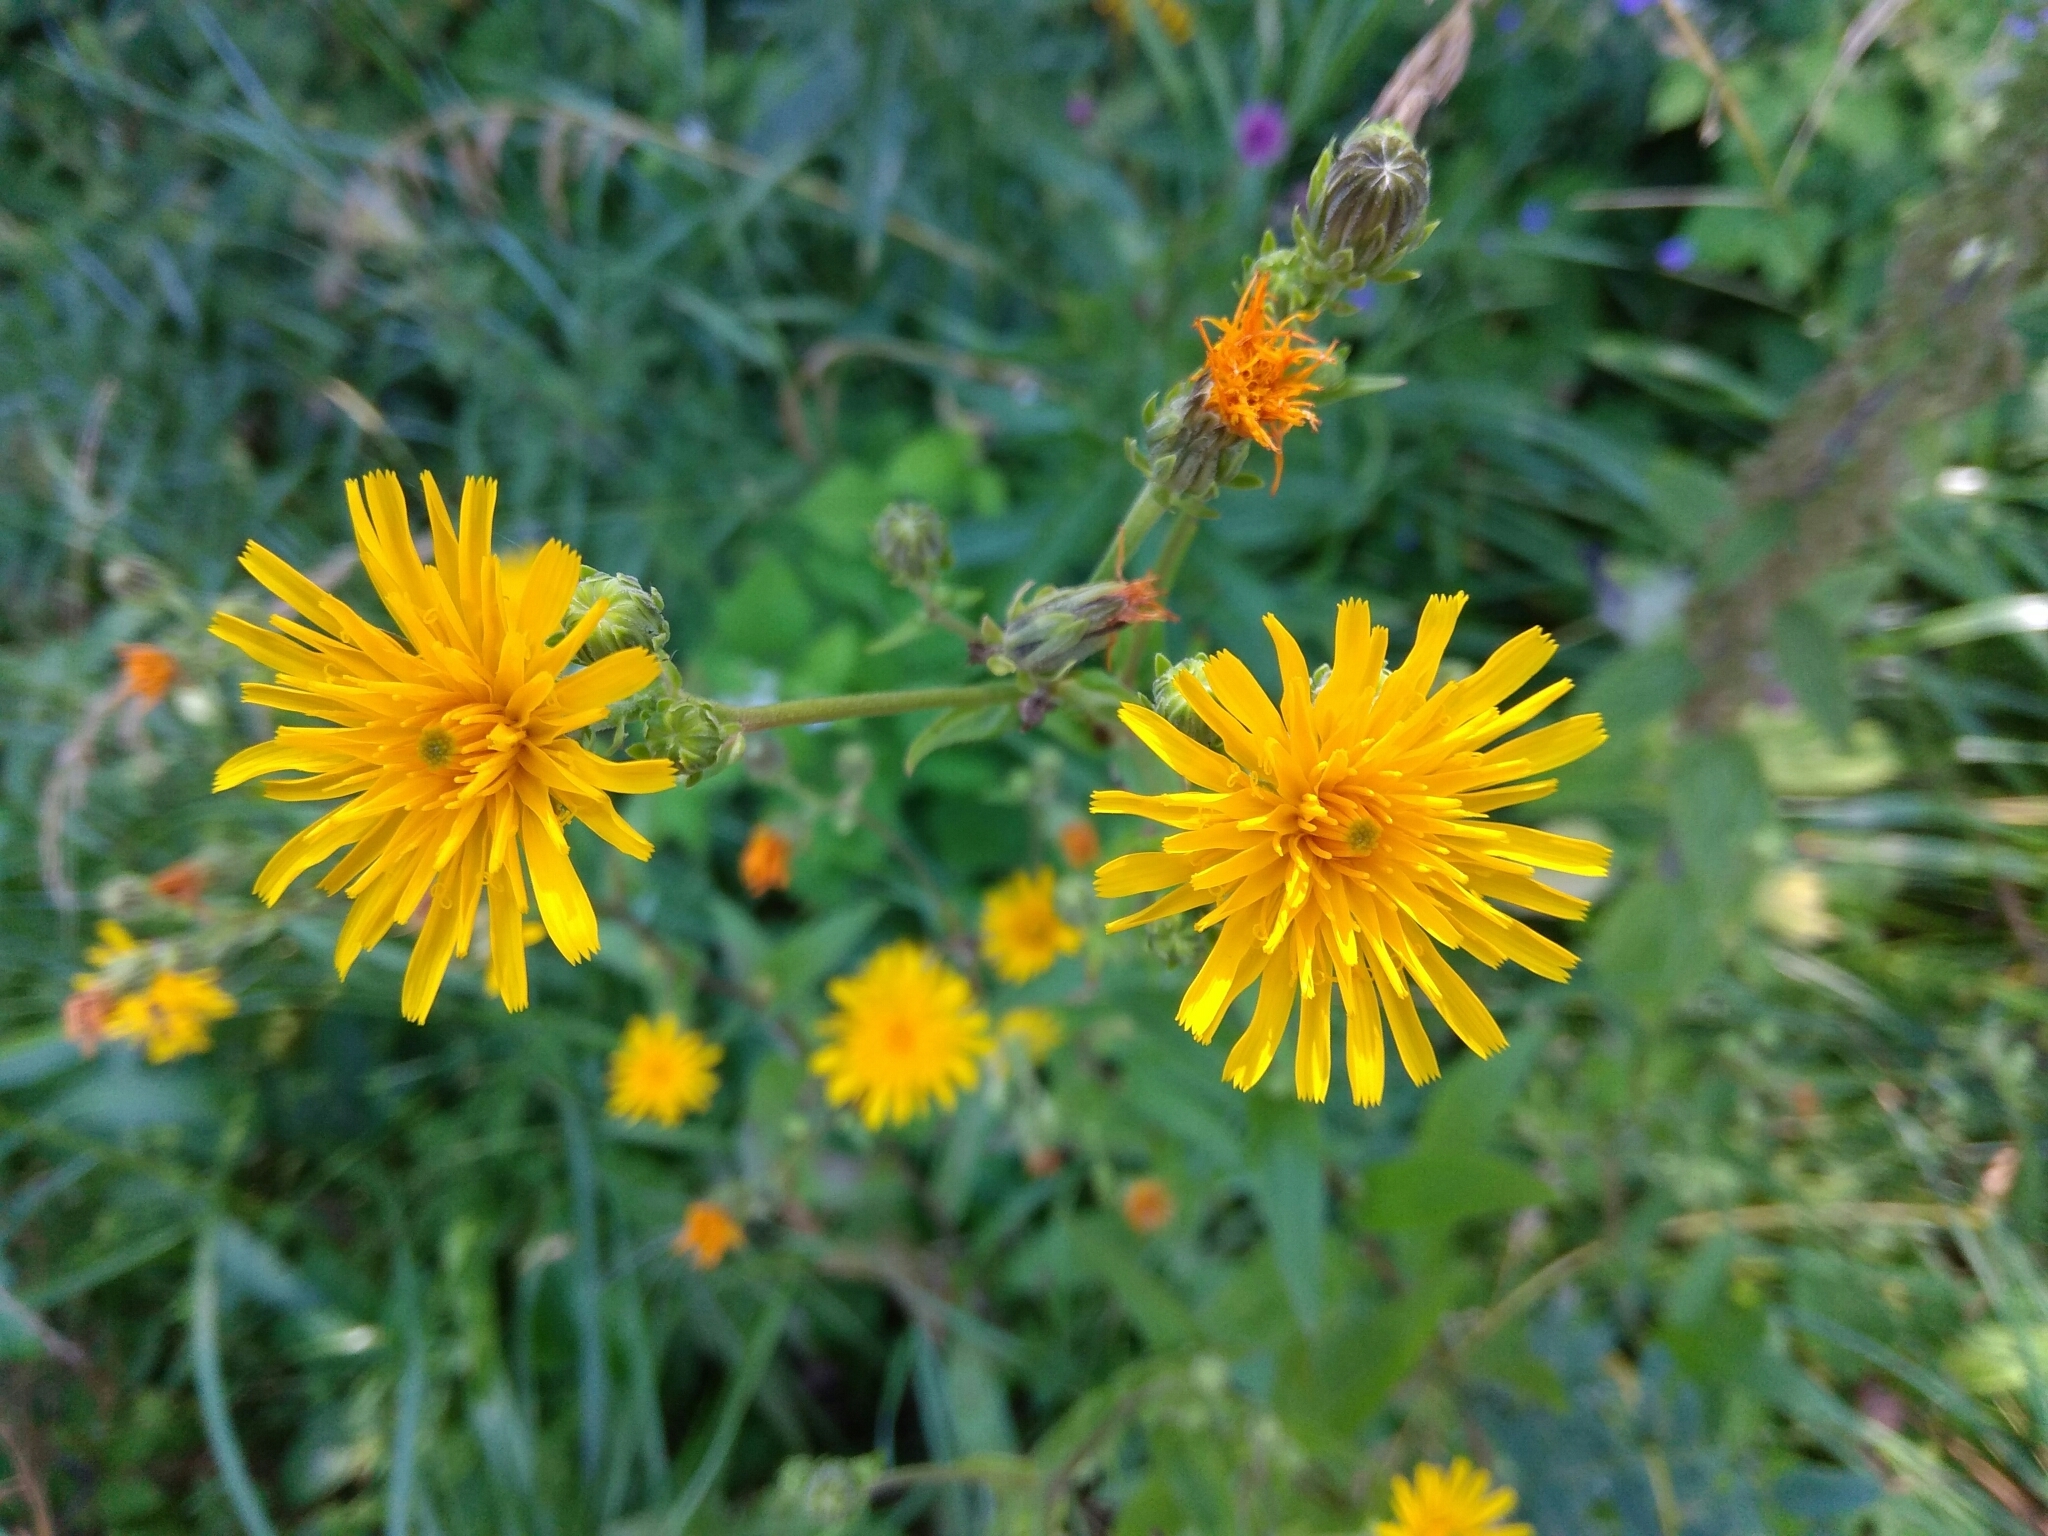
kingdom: Plantae
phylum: Tracheophyta
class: Magnoliopsida
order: Asterales
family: Asteraceae
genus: Picris
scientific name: Picris hieracioides
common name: Hawkweed oxtongue
